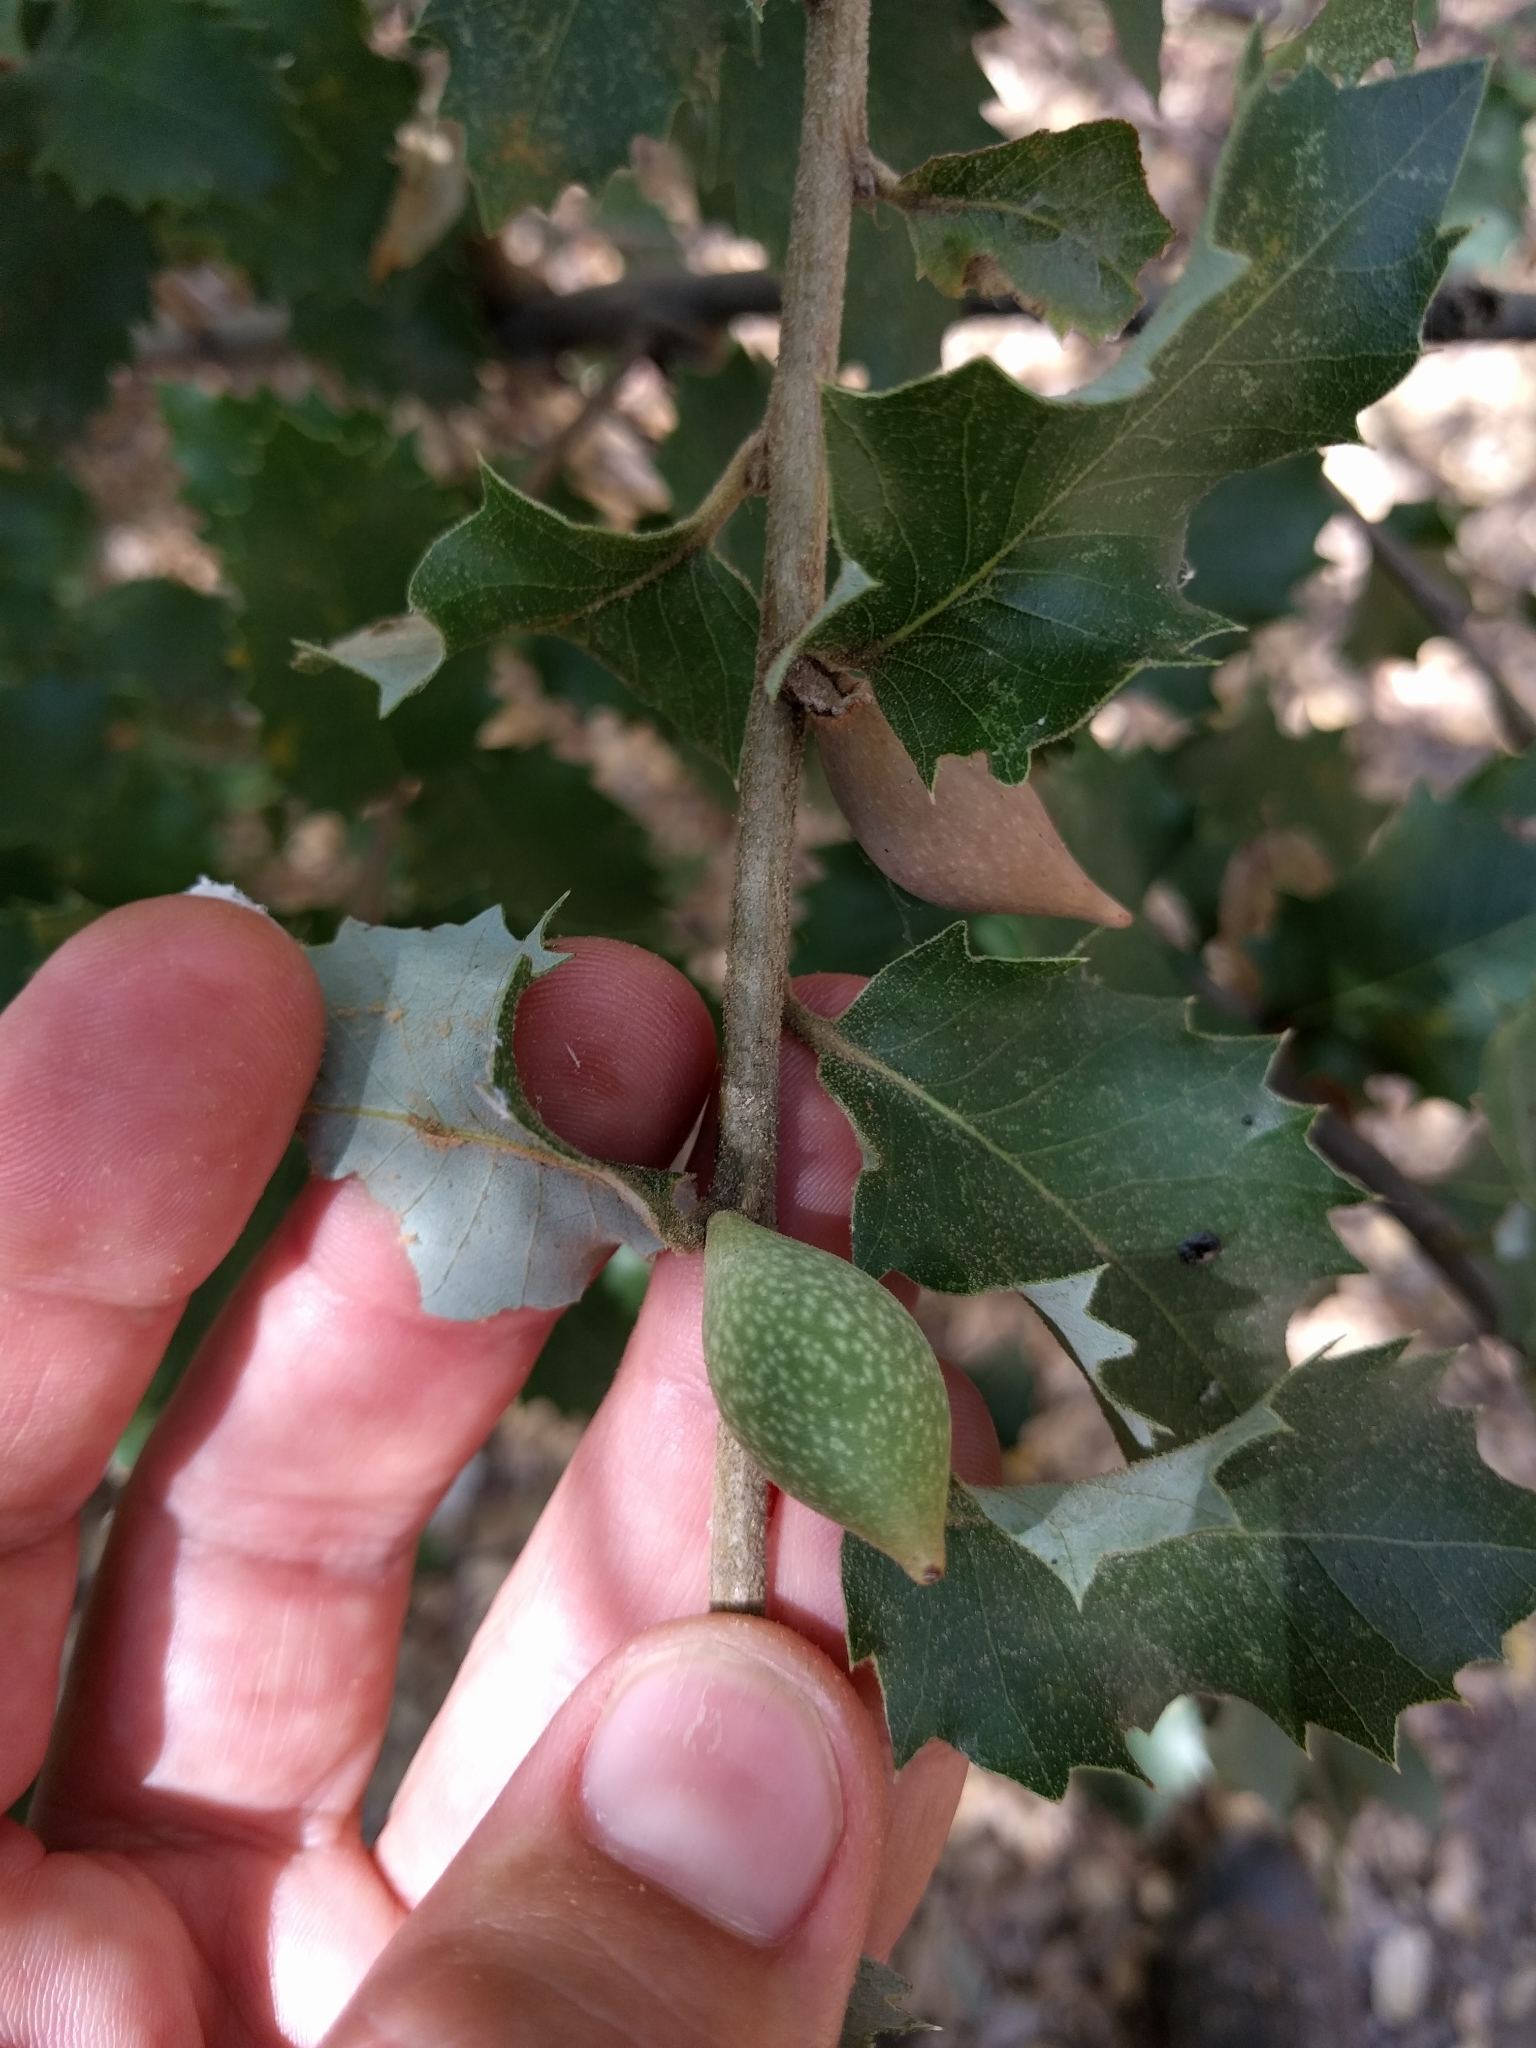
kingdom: Animalia
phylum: Arthropoda
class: Insecta
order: Hymenoptera
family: Cynipidae
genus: Heteroecus
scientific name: Heteroecus pacificus
